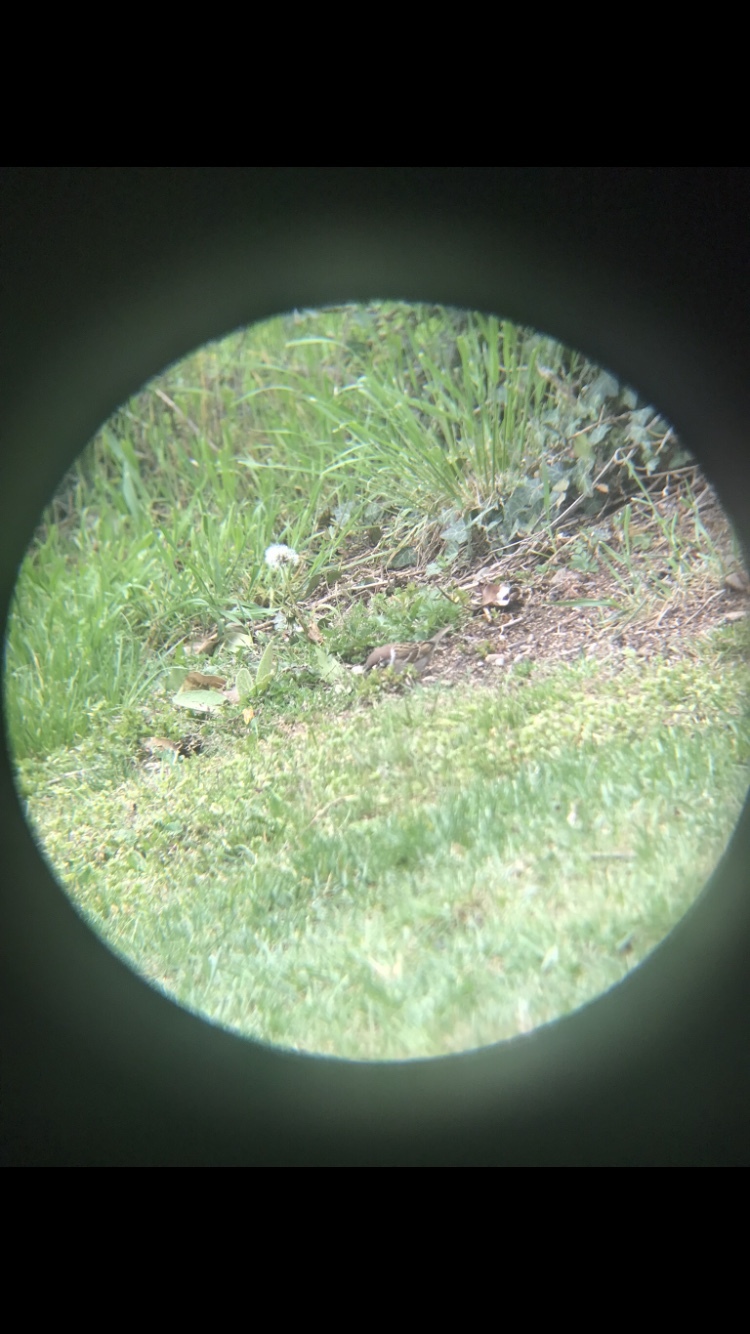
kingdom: Animalia
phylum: Chordata
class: Aves
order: Passeriformes
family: Passeridae
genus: Passer
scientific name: Passer montanus
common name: Eurasian tree sparrow
